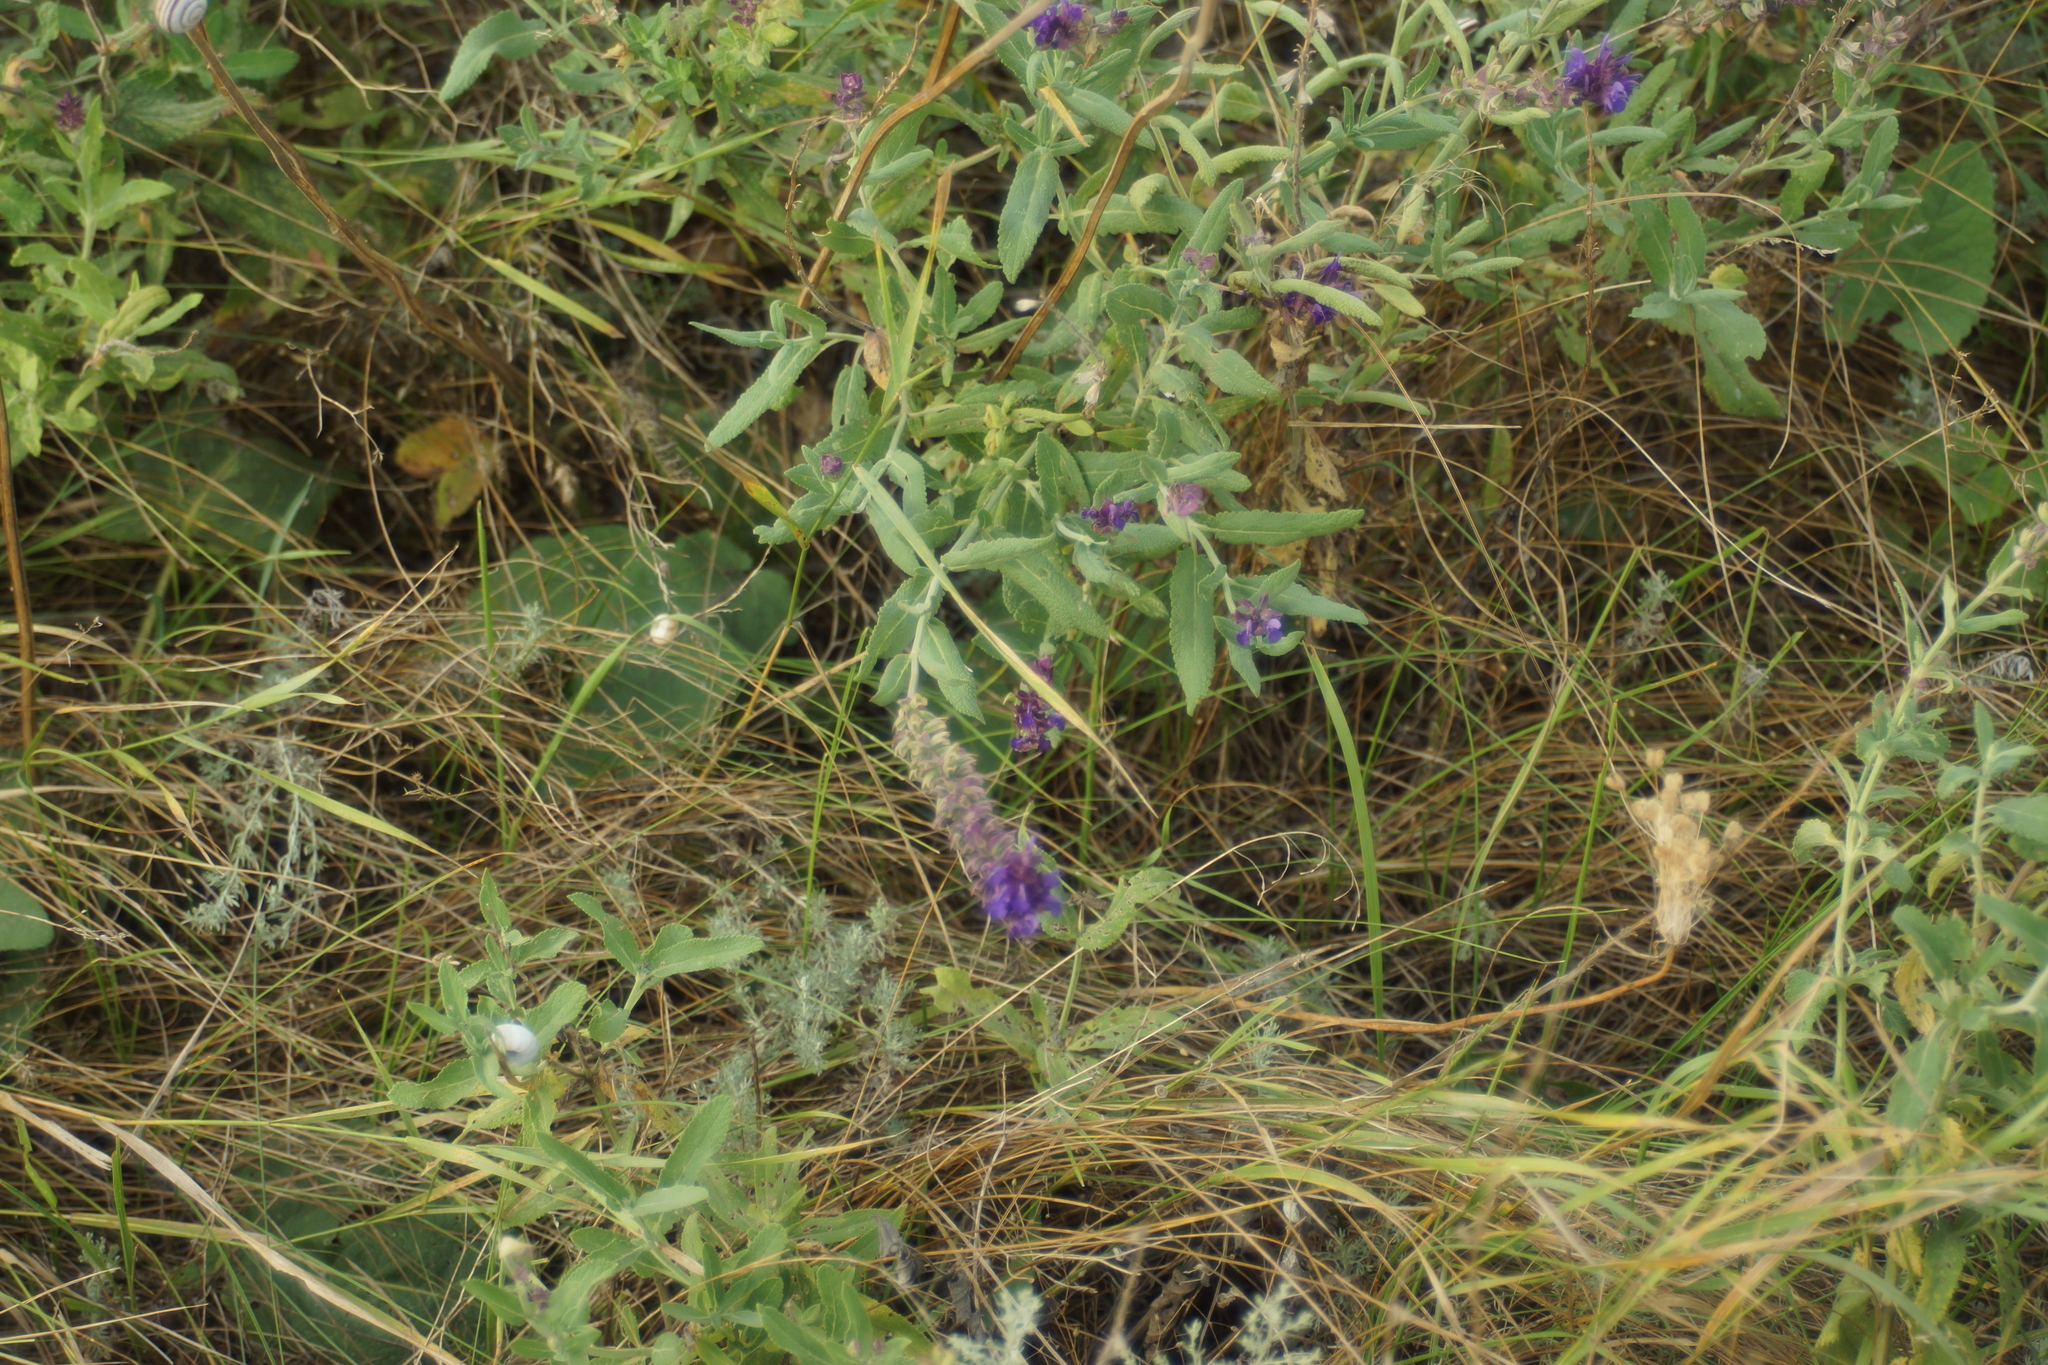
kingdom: Plantae
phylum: Tracheophyta
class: Magnoliopsida
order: Lamiales
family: Lamiaceae
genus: Salvia
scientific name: Salvia nemorosa
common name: Balkan clary
